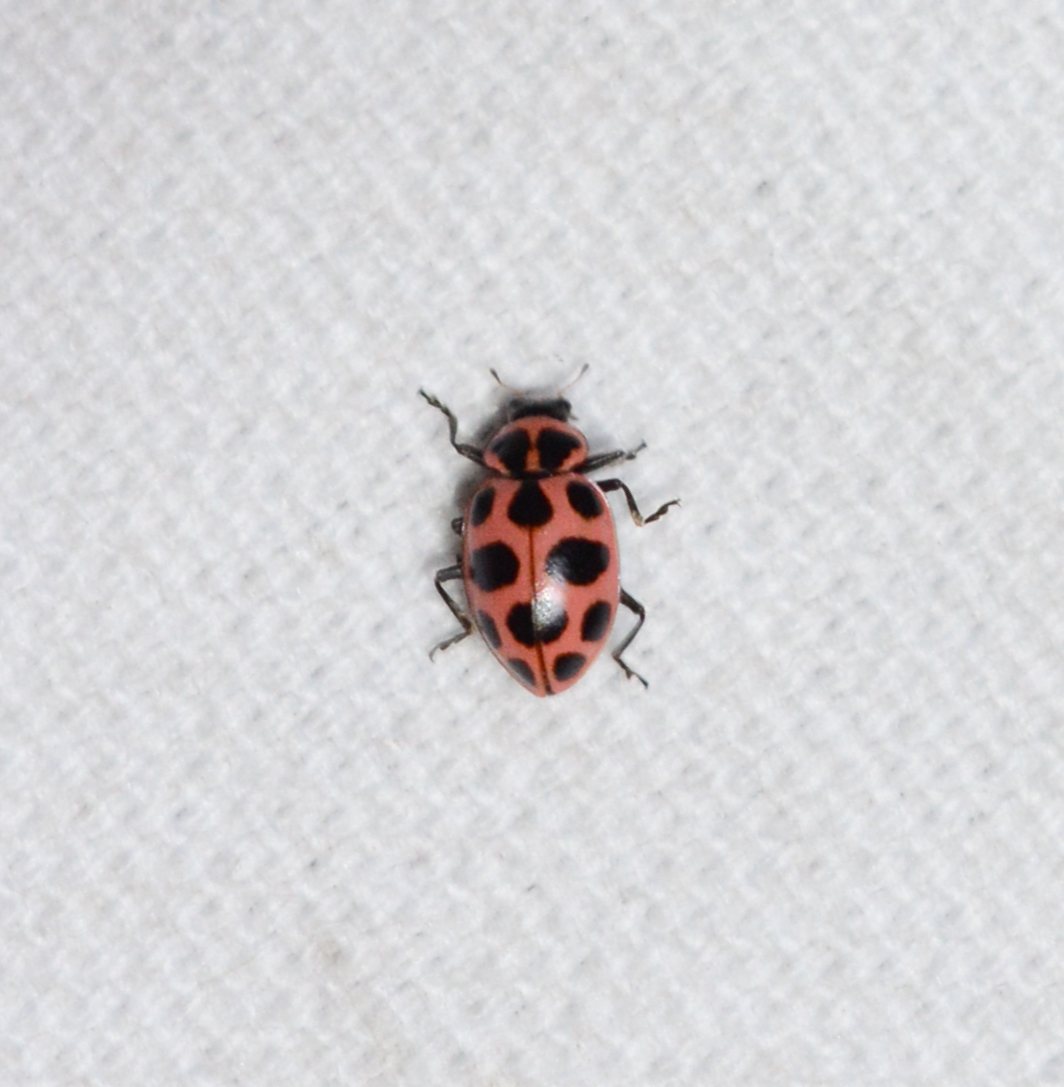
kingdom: Animalia
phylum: Arthropoda
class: Insecta
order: Coleoptera
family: Coccinellidae
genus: Coleomegilla
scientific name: Coleomegilla maculata
